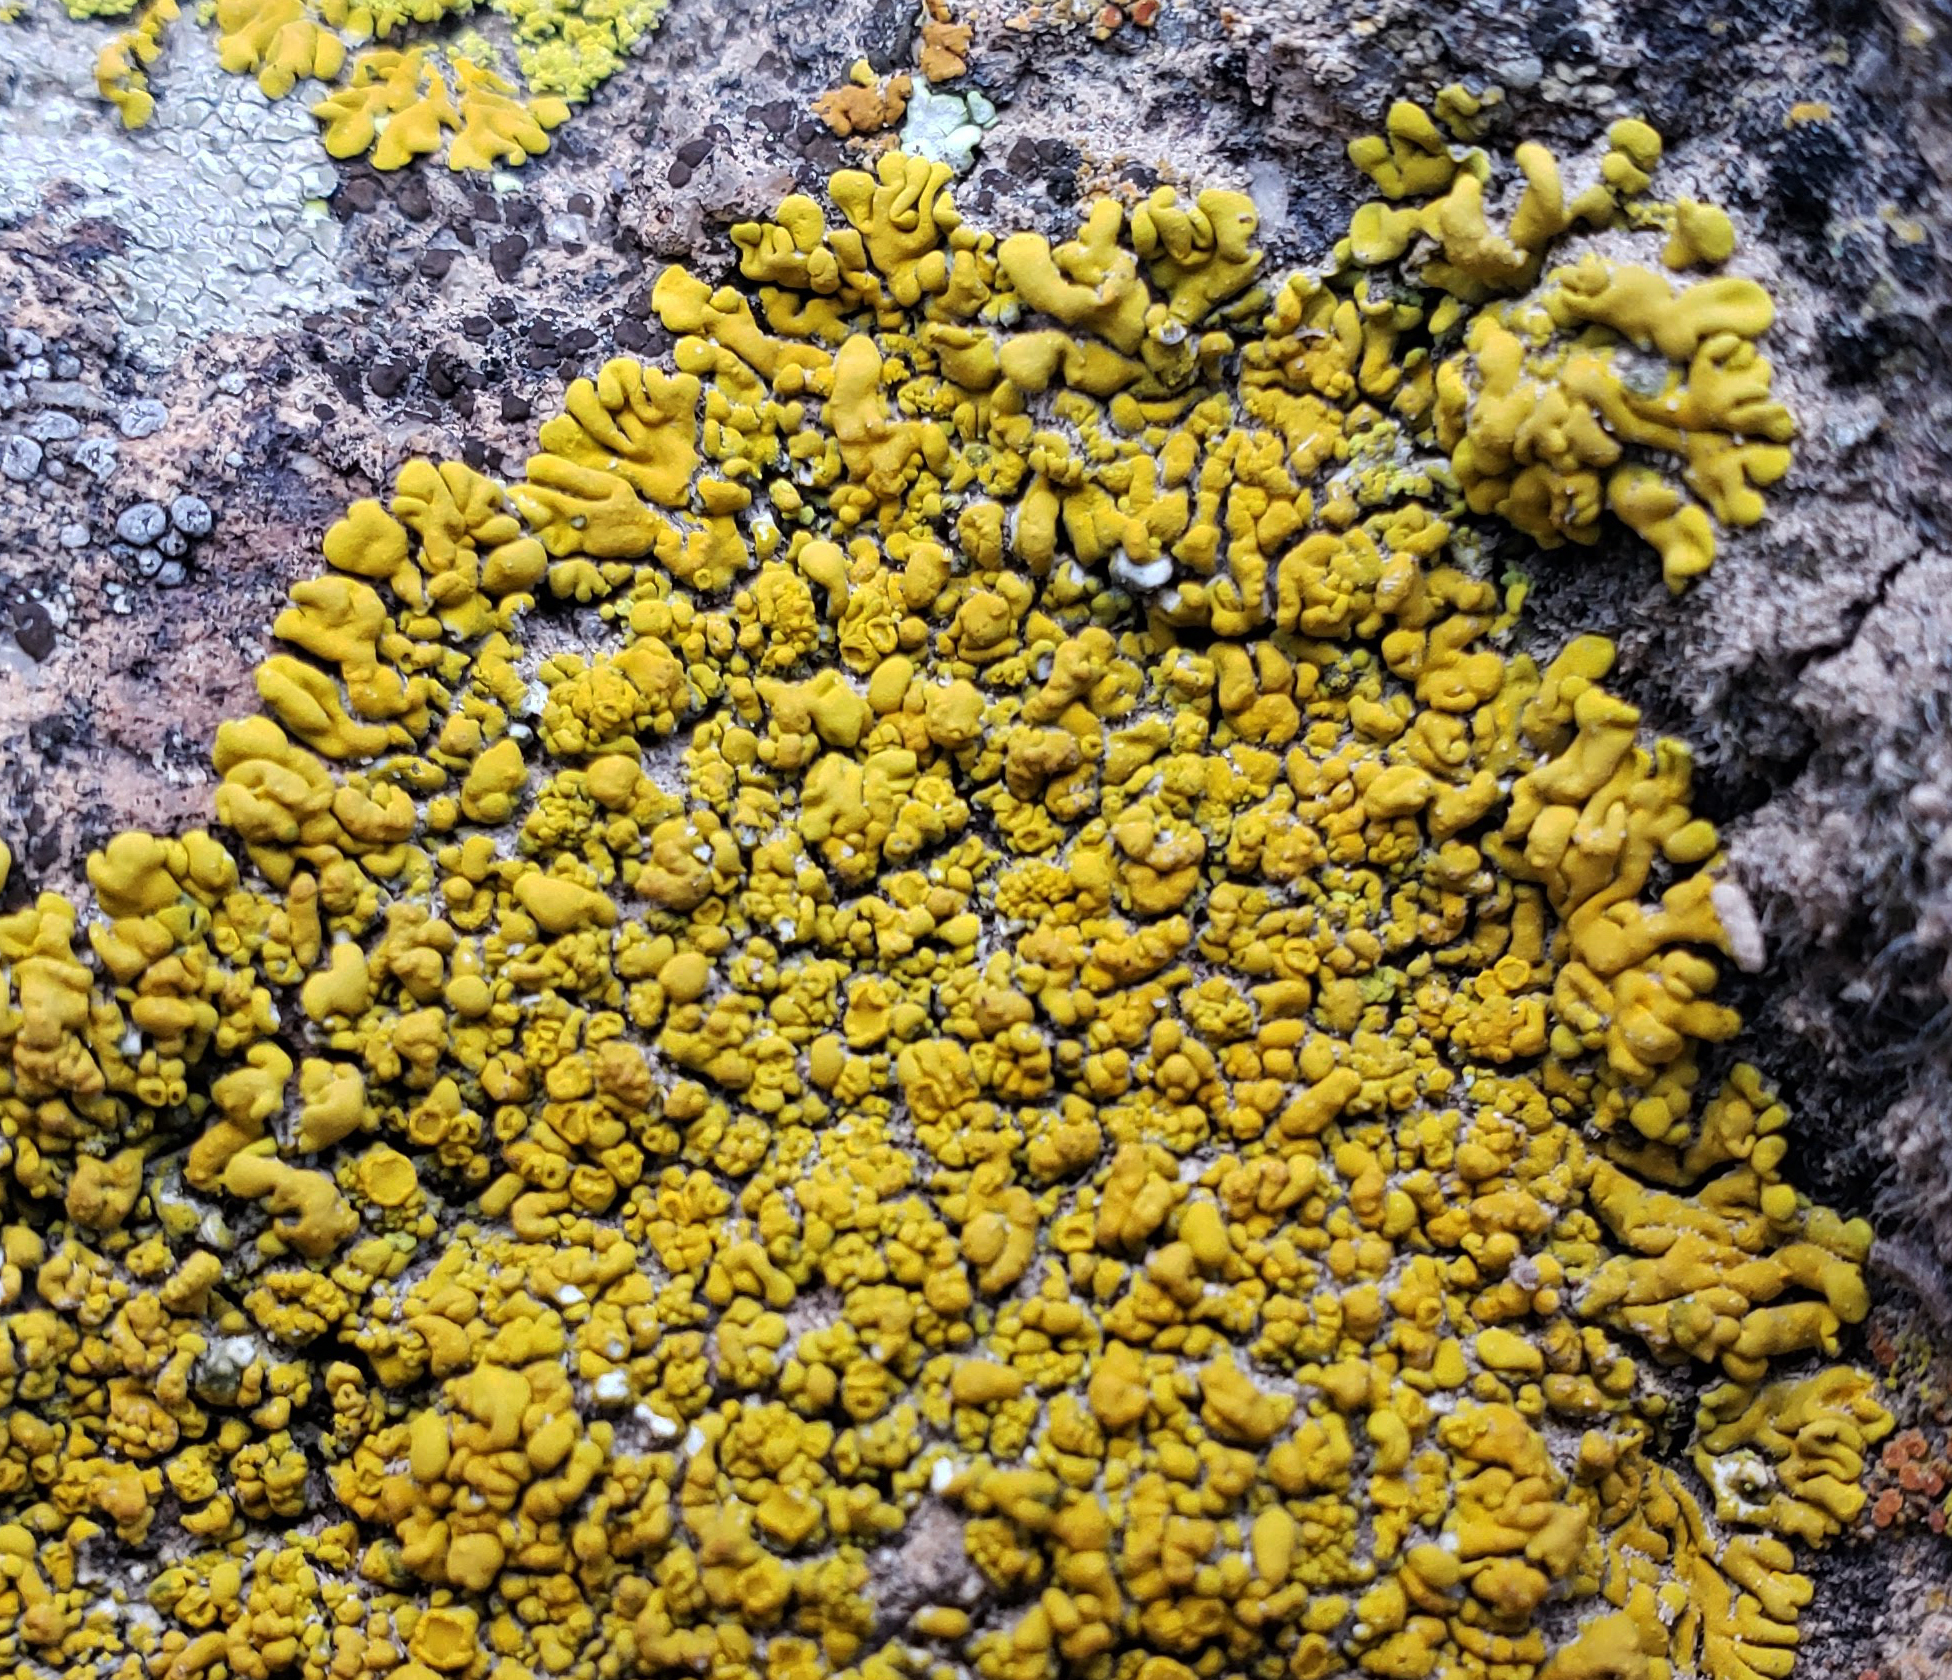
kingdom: Fungi
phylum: Ascomycota
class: Candelariomycetes
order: Candelariales
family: Candelariaceae
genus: Candelina
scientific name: Candelina submexicana
